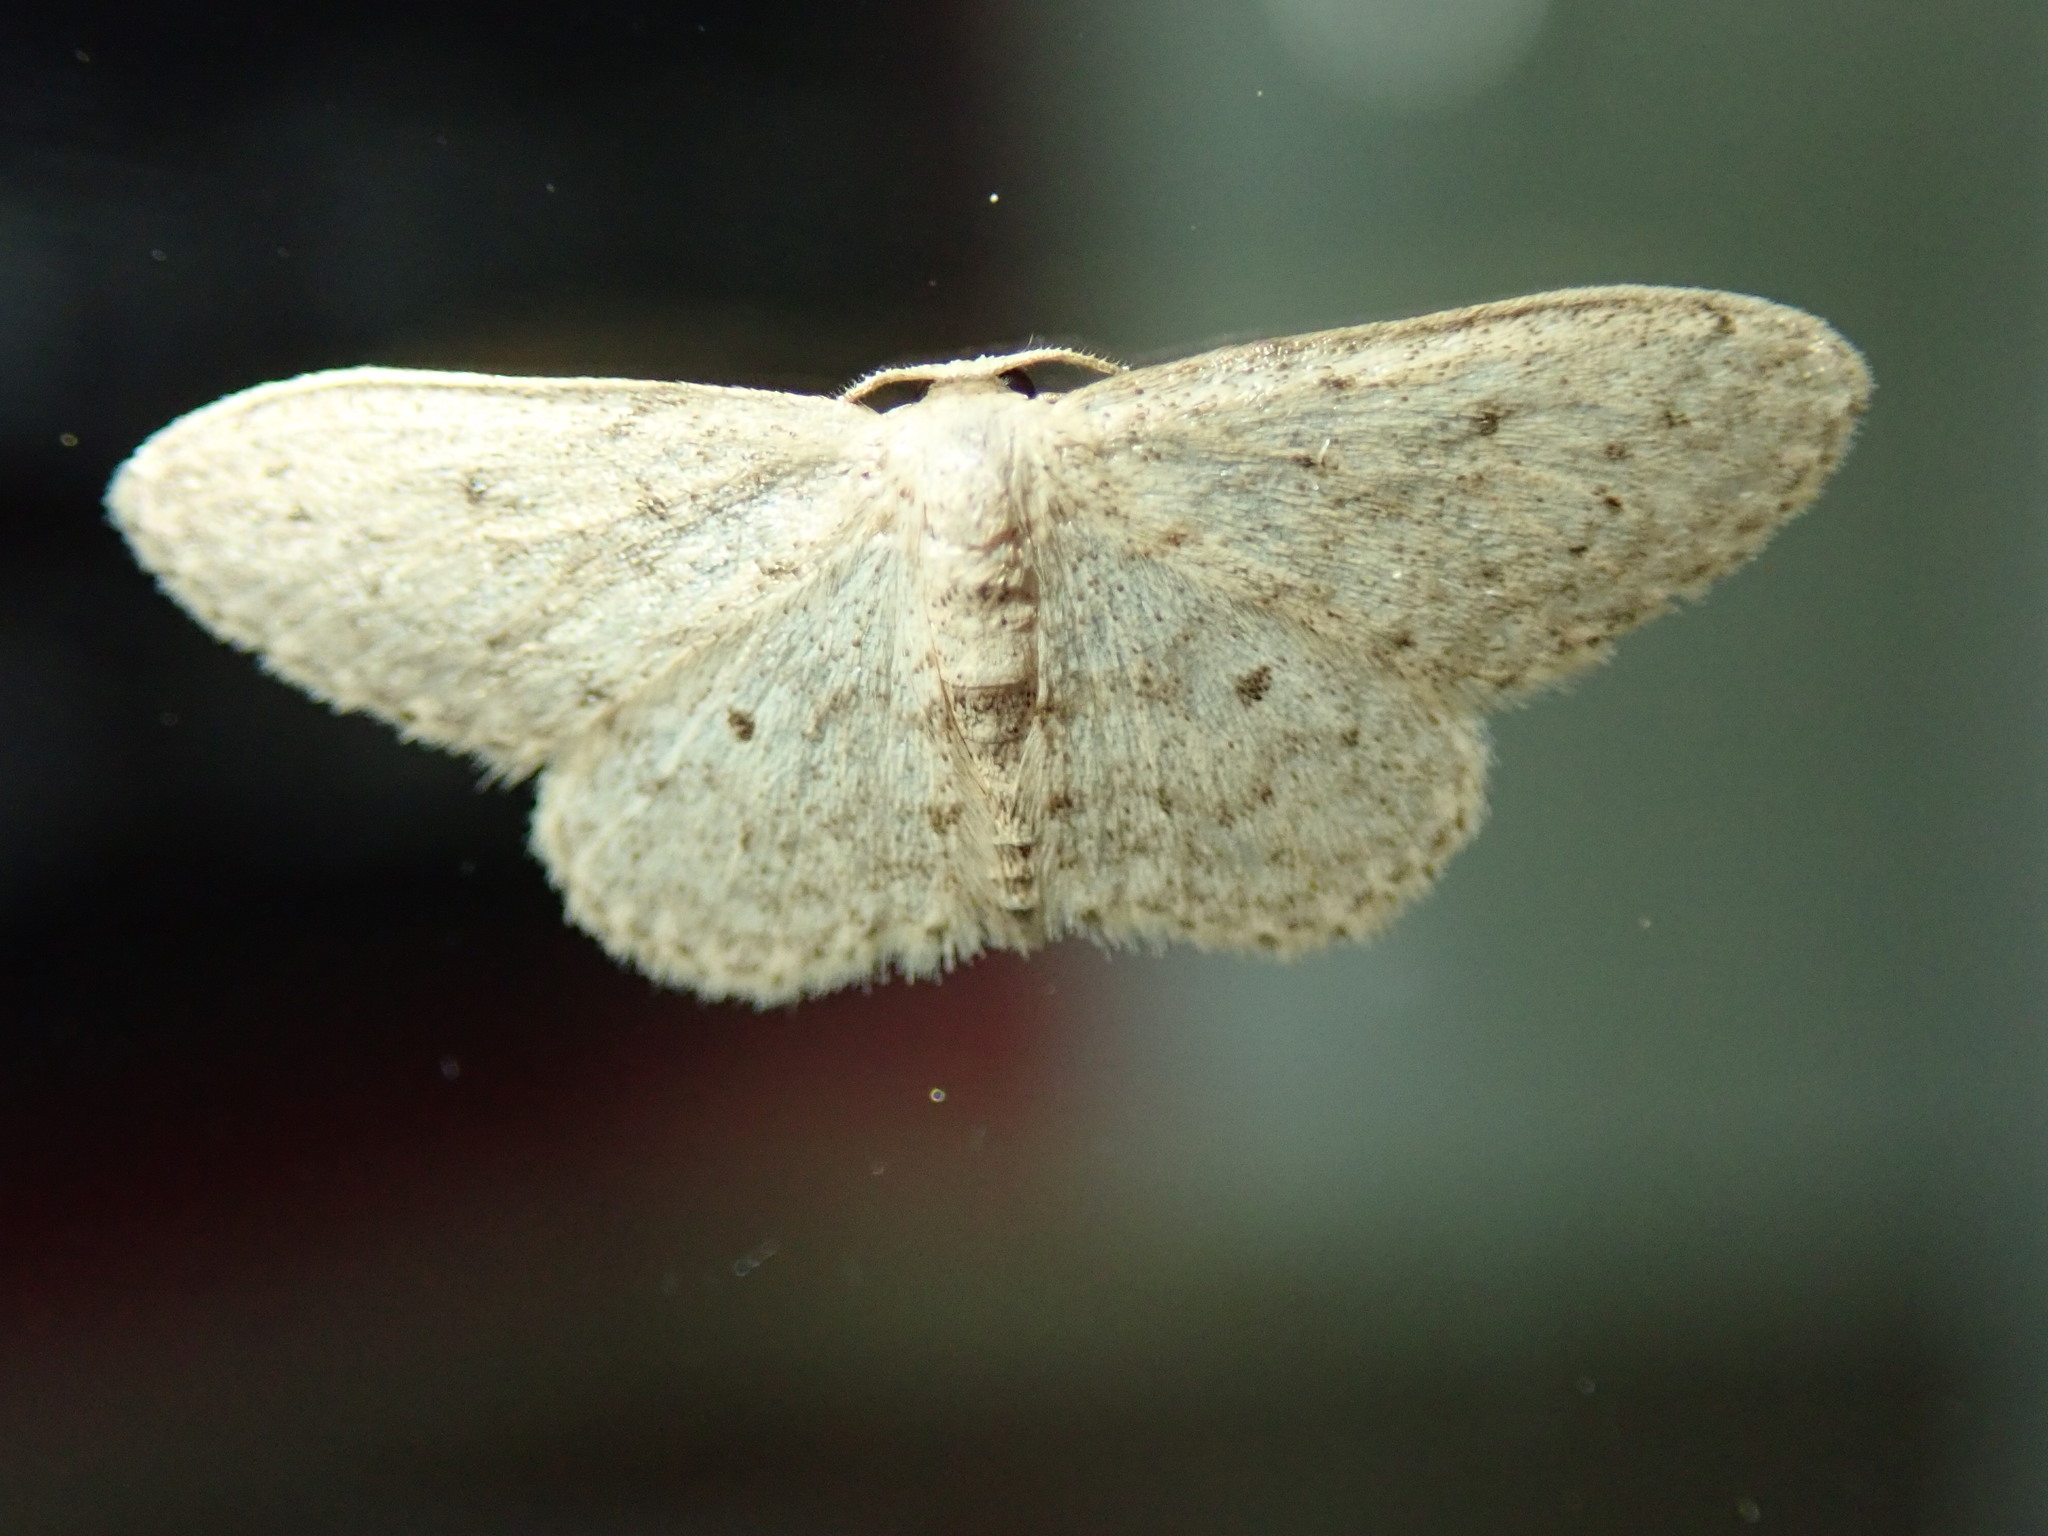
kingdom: Animalia
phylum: Arthropoda
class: Insecta
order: Lepidoptera
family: Geometridae
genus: Idaea
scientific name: Idaea seriata
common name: Small dusty wave
